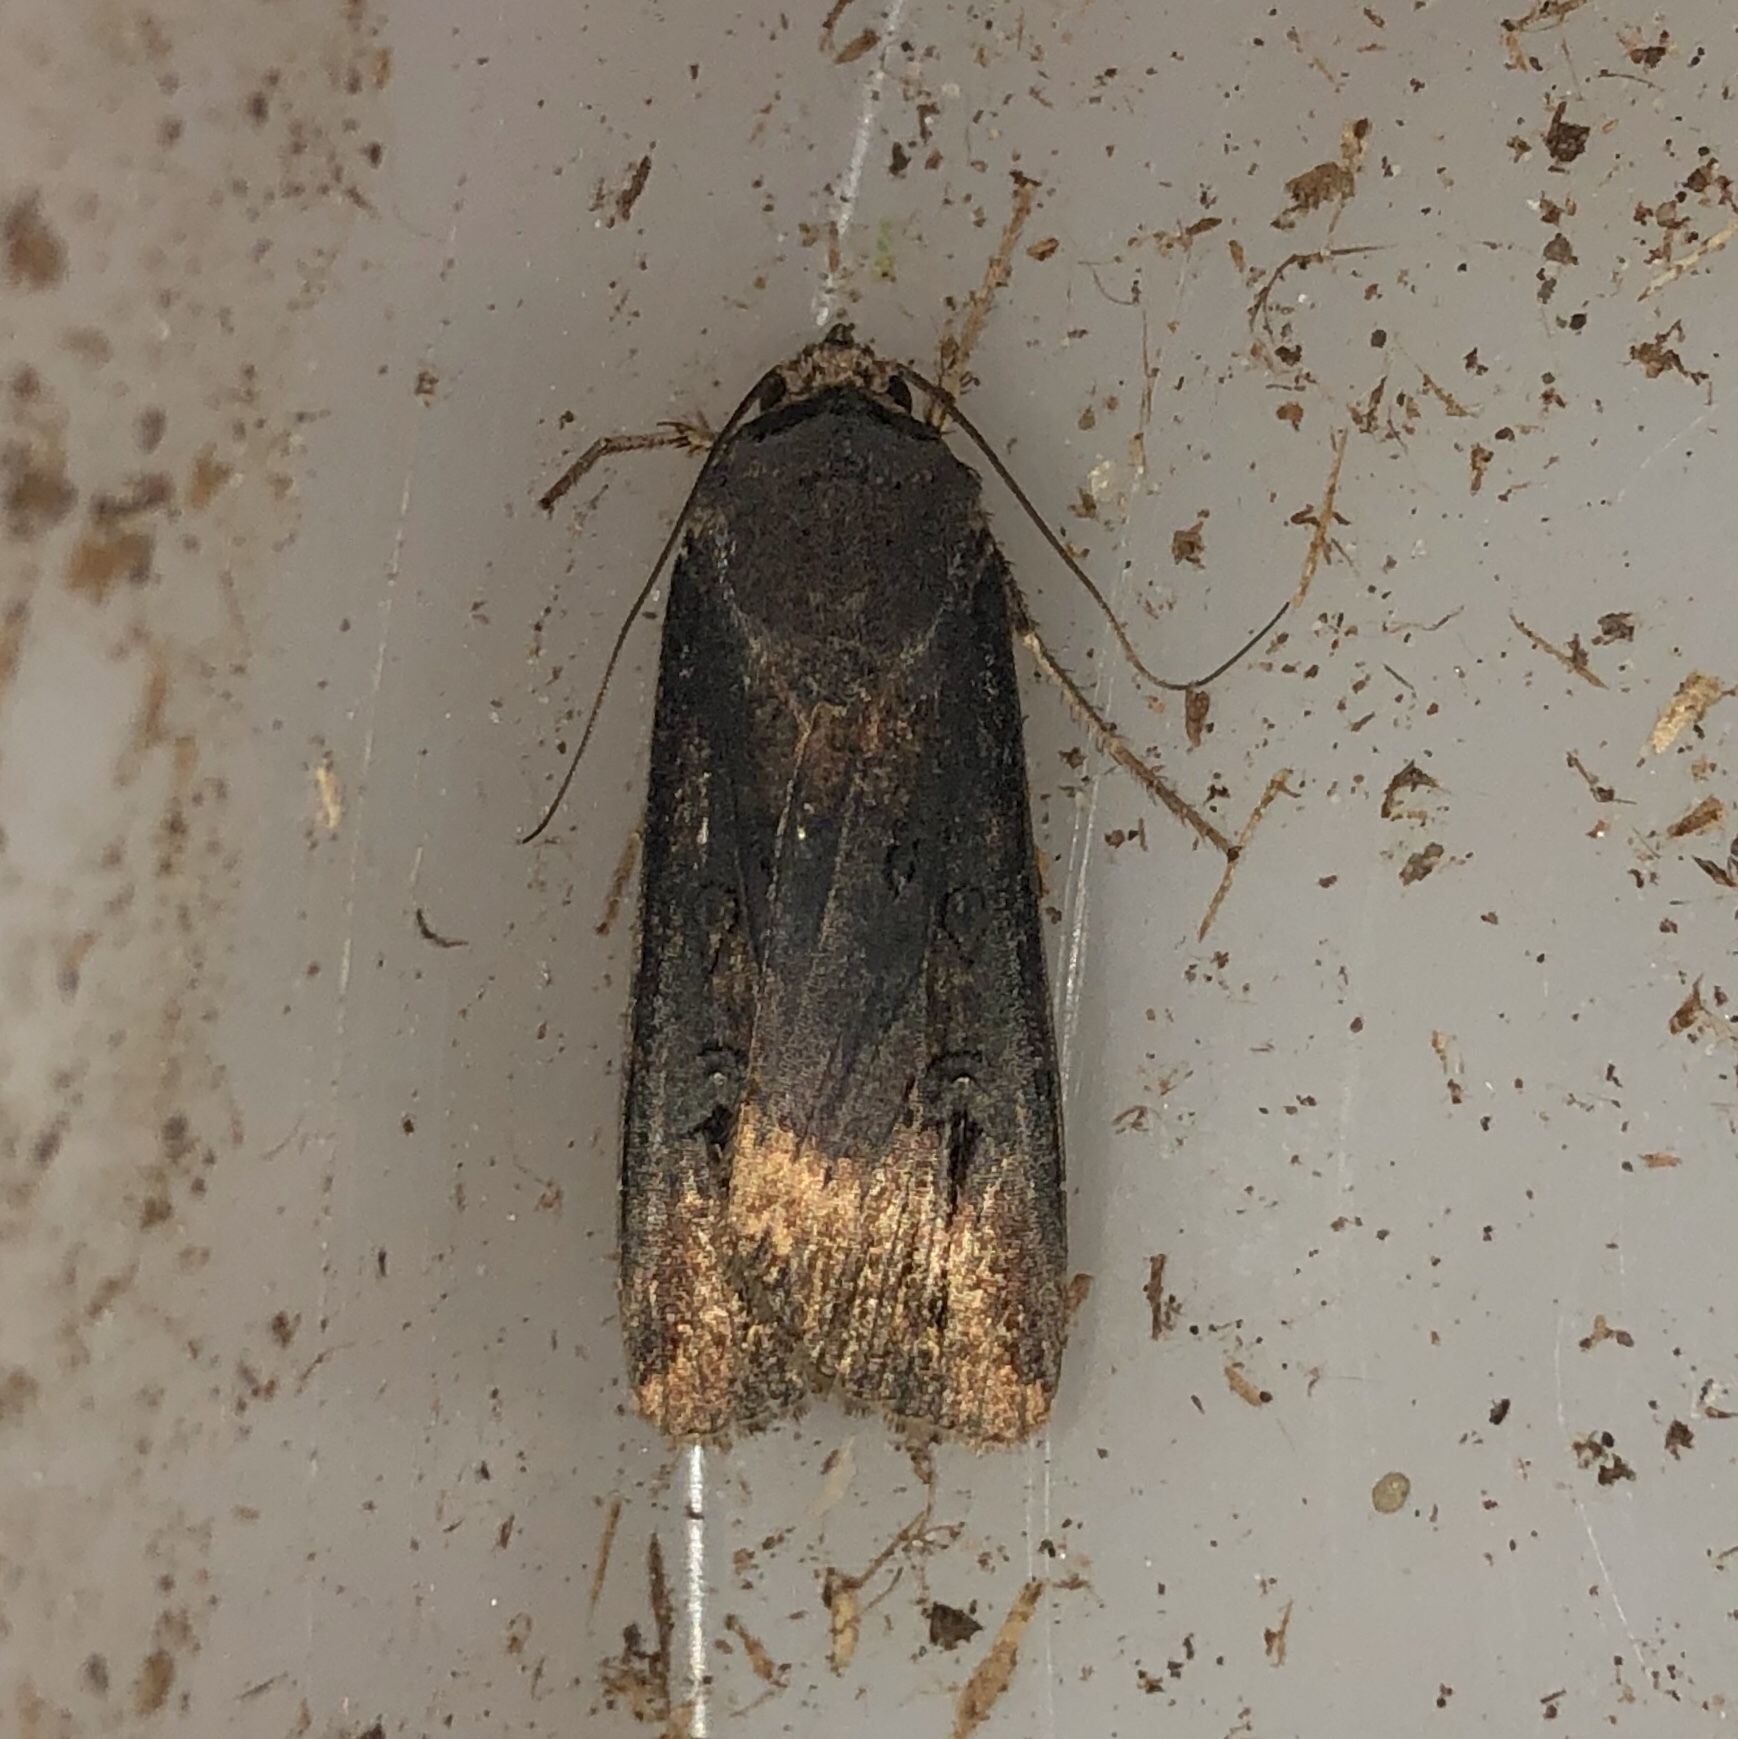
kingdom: Animalia
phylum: Arthropoda
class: Insecta
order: Lepidoptera
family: Noctuidae
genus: Agrotis
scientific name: Agrotis ipsilon
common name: Dark sword-grass
